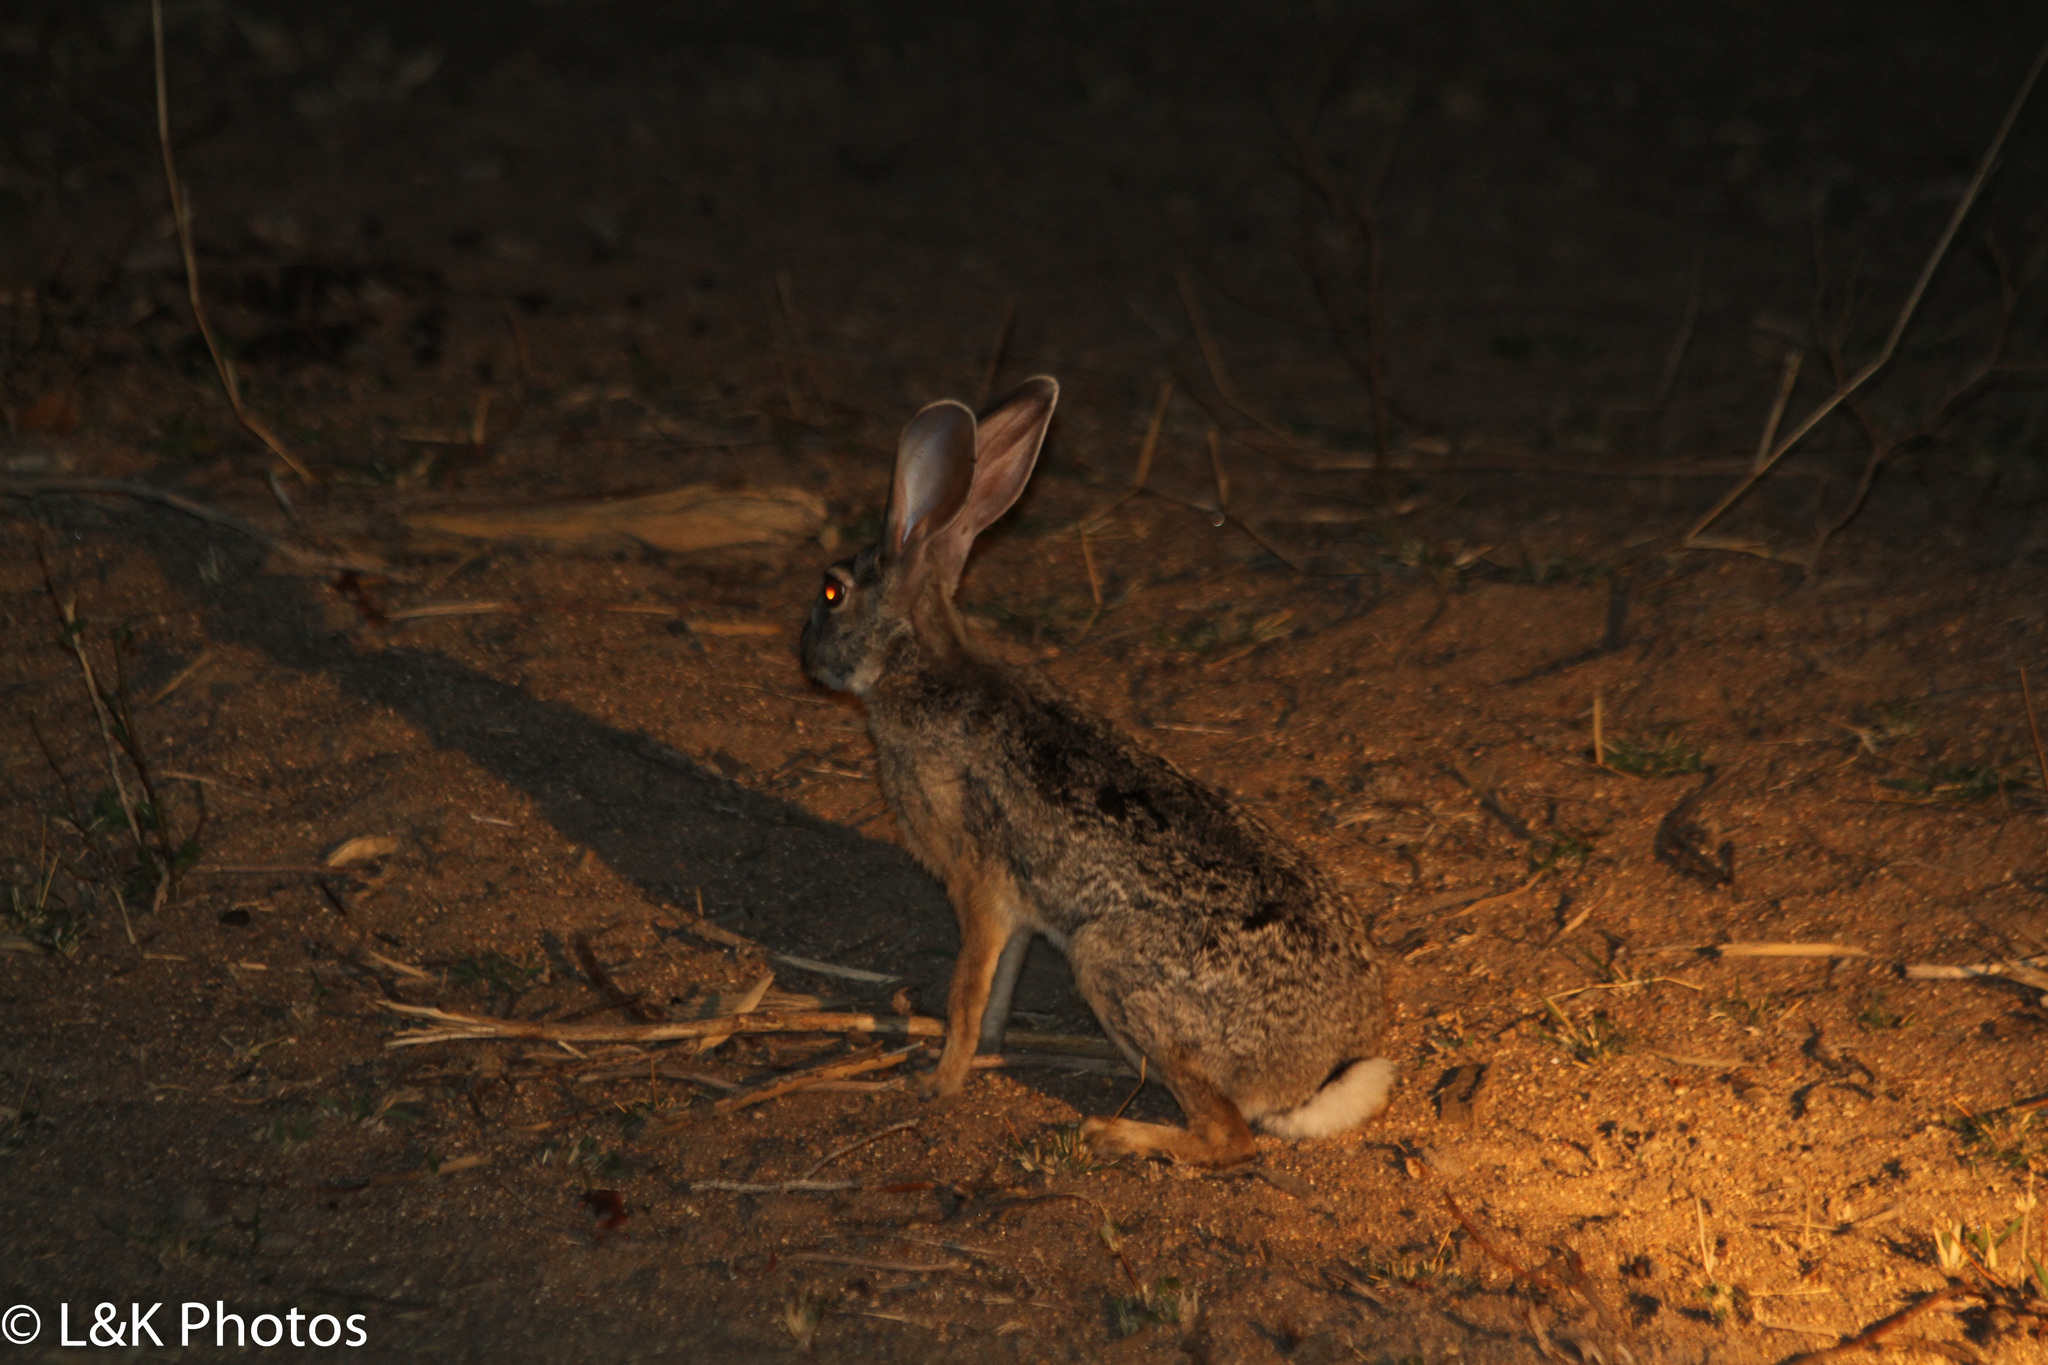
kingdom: Animalia
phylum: Chordata
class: Mammalia
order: Lagomorpha
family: Leporidae
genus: Lepus
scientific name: Lepus saxatilis
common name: Scrub hare
